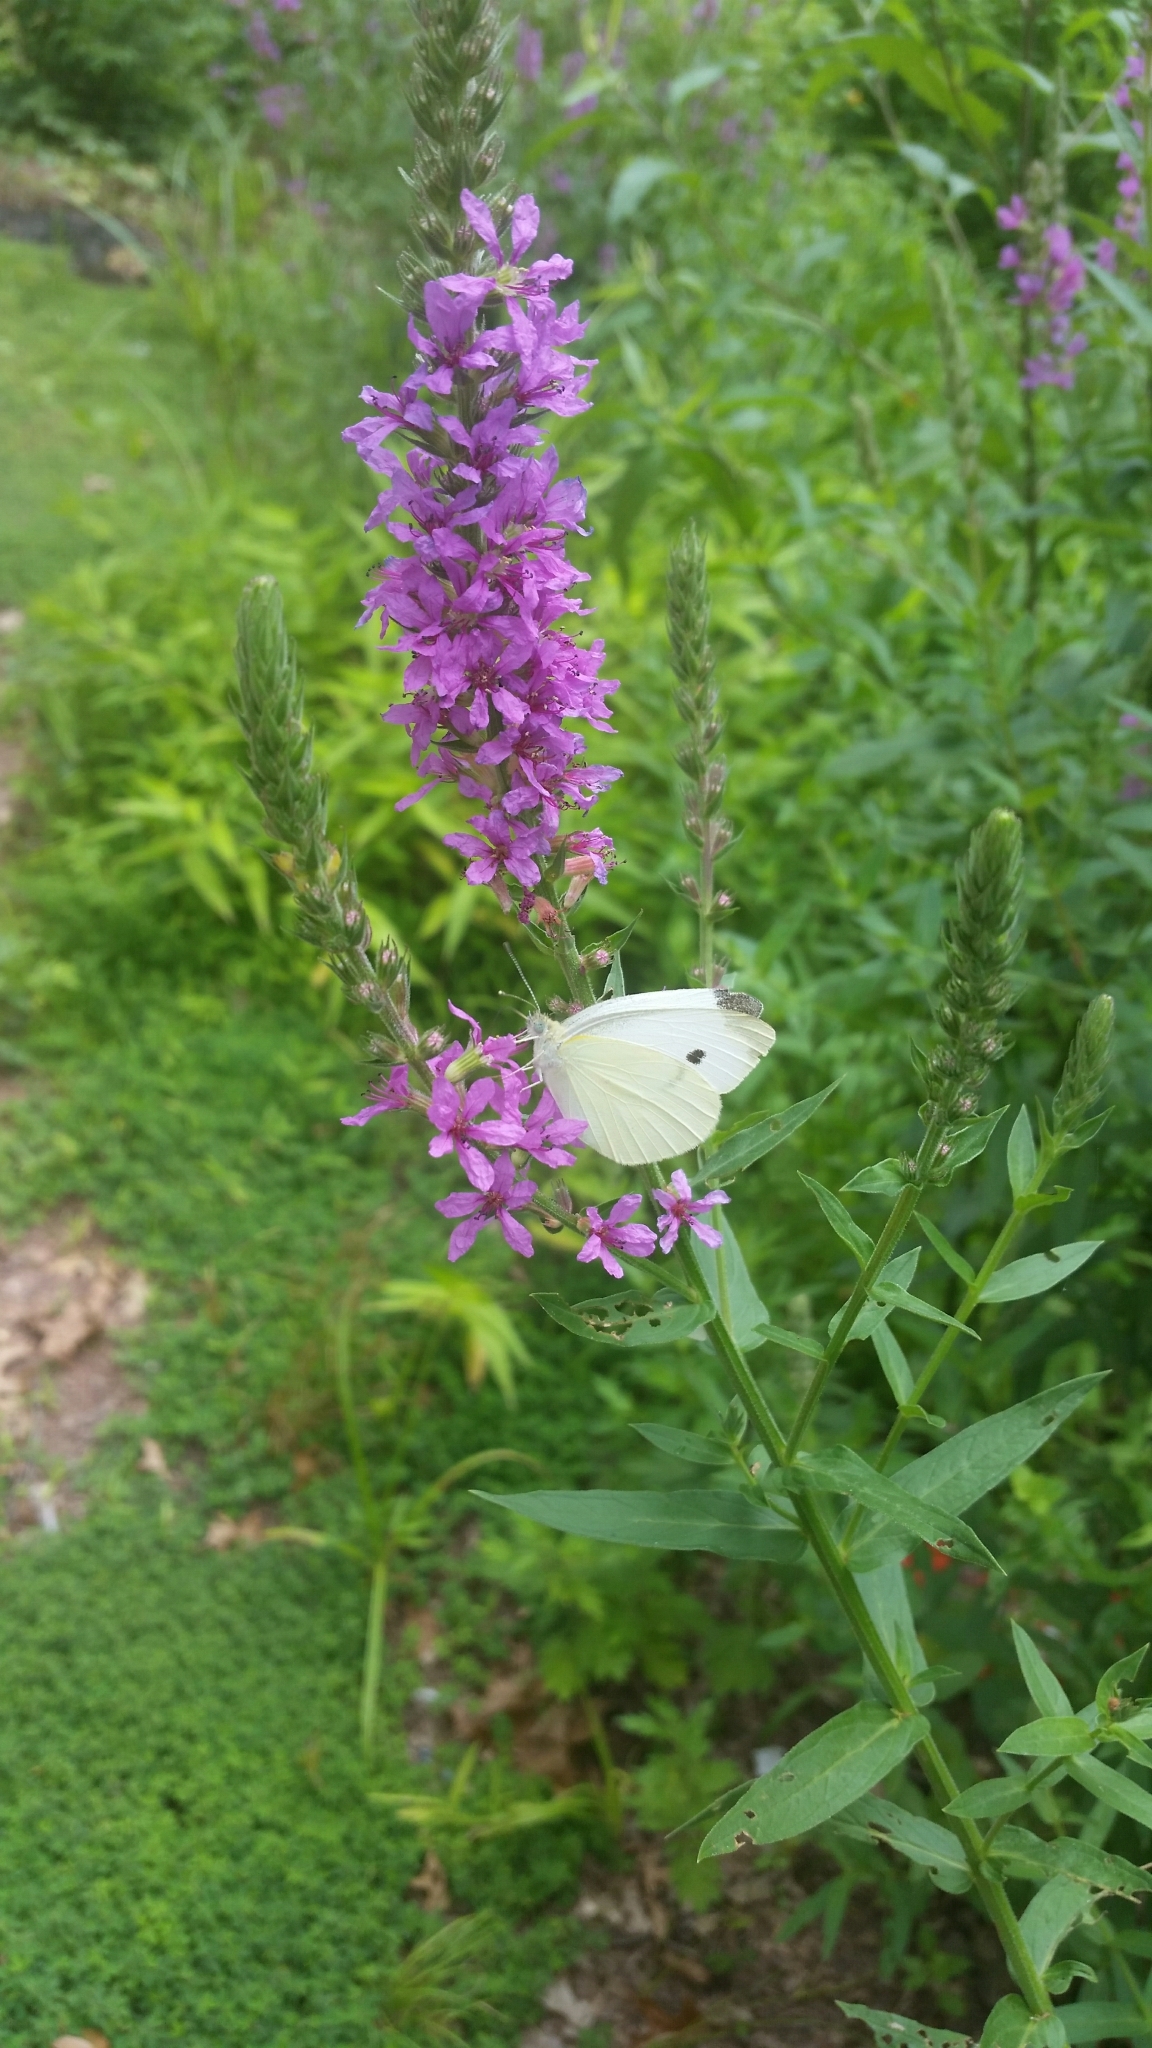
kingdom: Animalia
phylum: Arthropoda
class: Insecta
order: Lepidoptera
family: Pieridae
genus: Pieris
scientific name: Pieris rapae
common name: Small white
